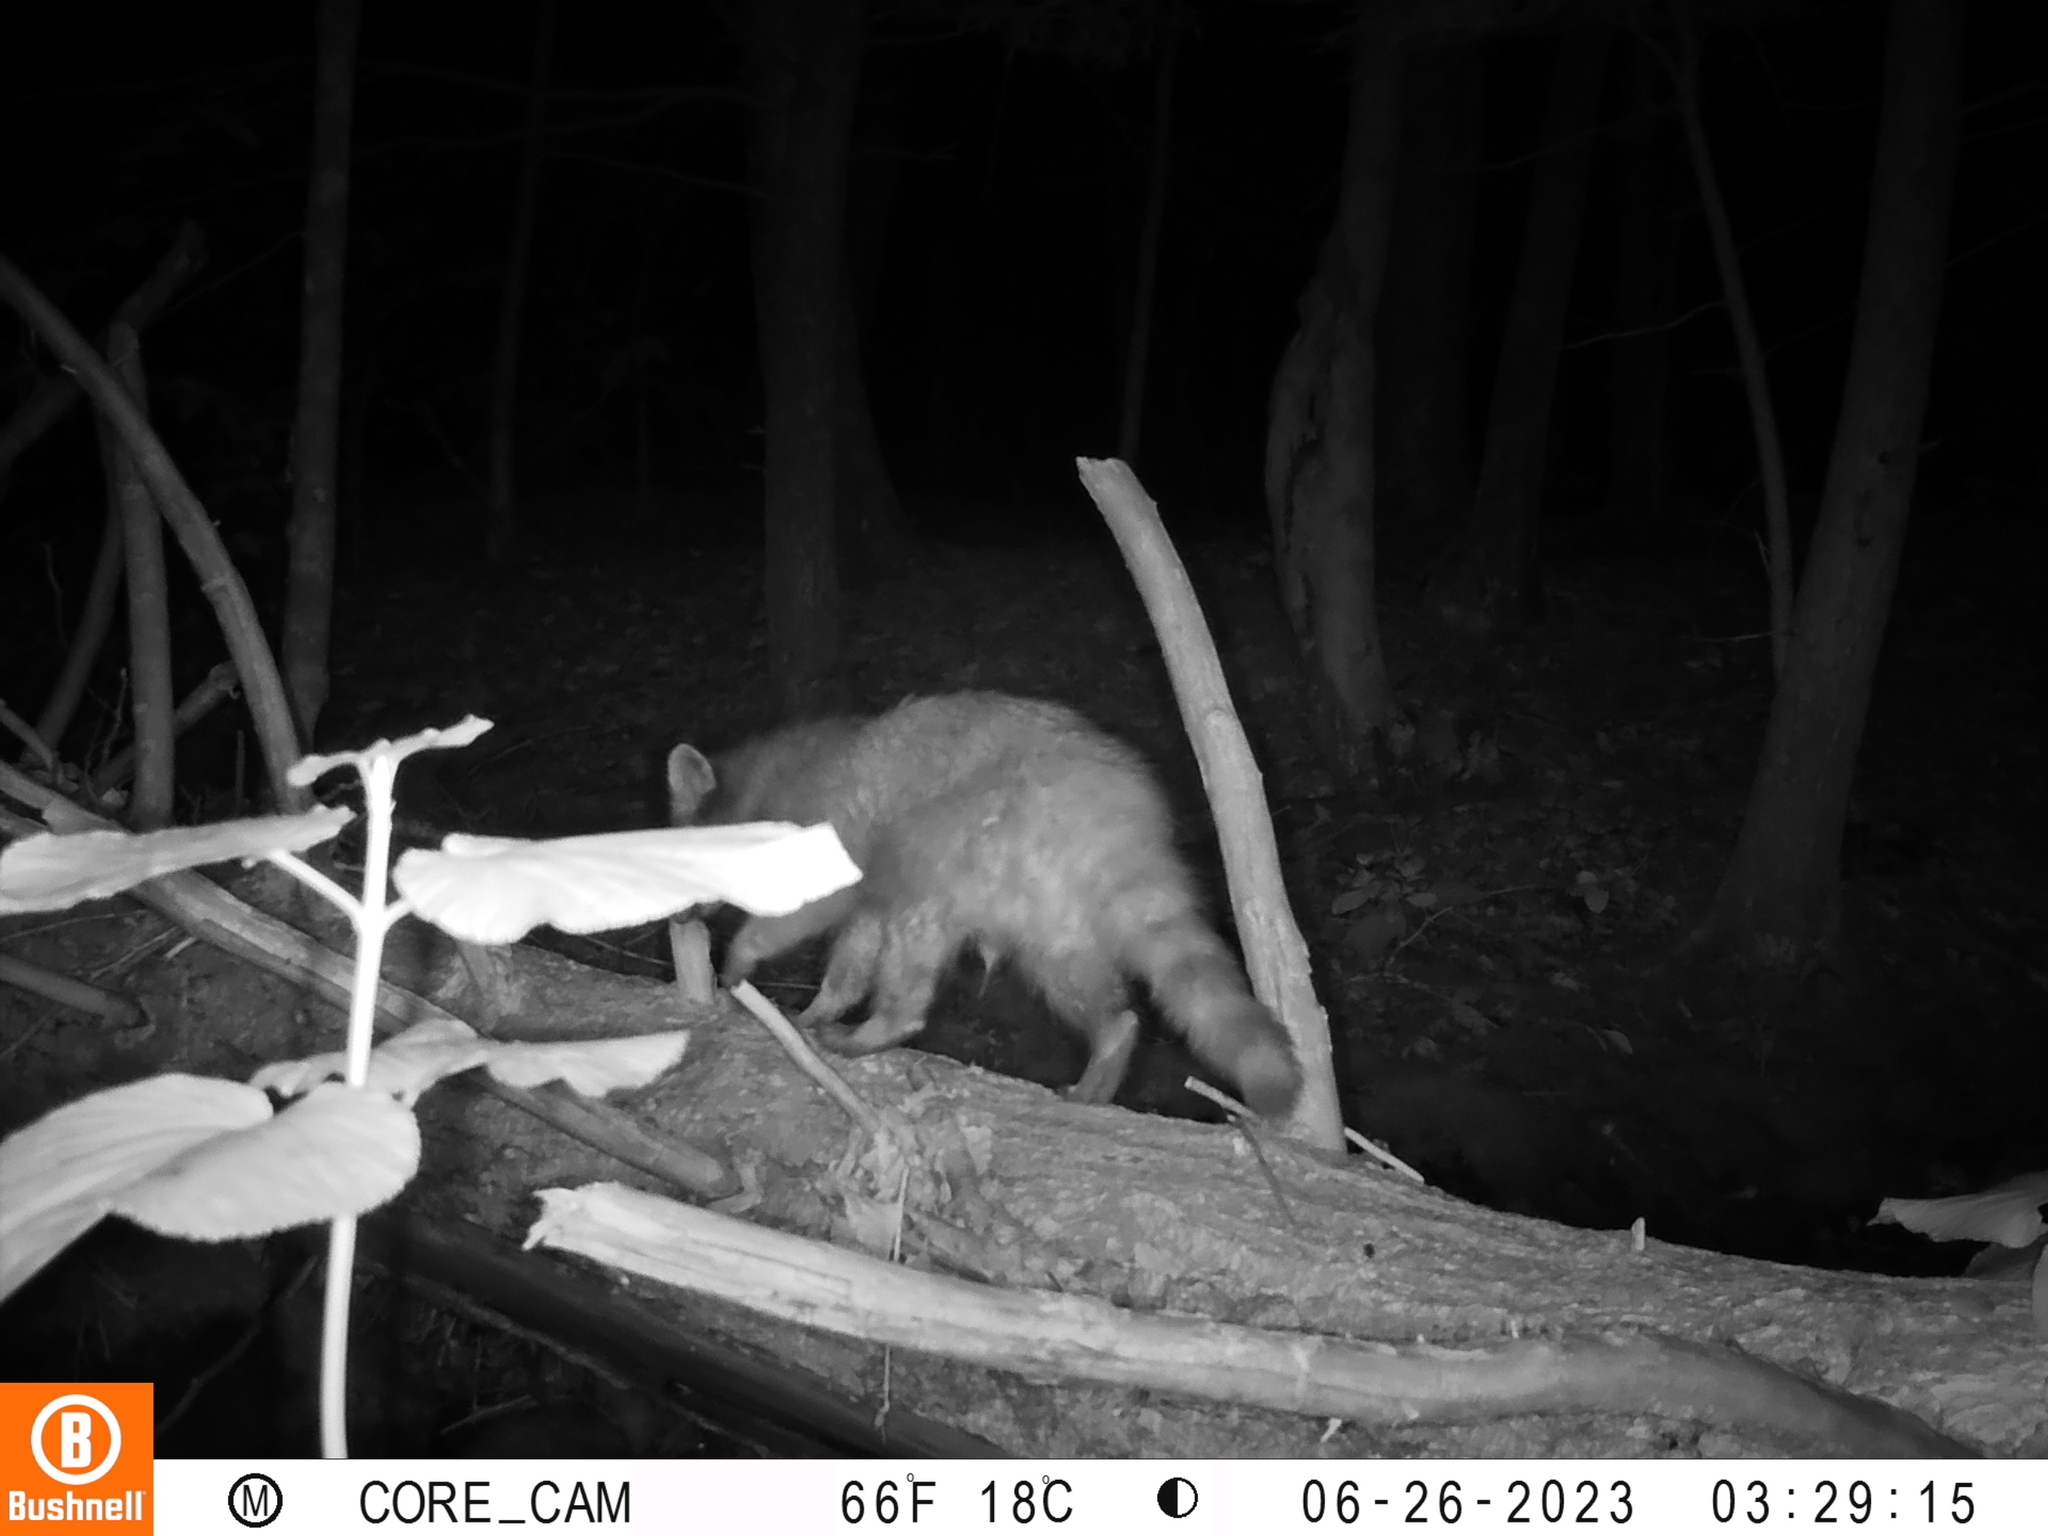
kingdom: Animalia
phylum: Chordata
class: Mammalia
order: Carnivora
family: Procyonidae
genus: Procyon
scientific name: Procyon lotor
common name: Raccoon
